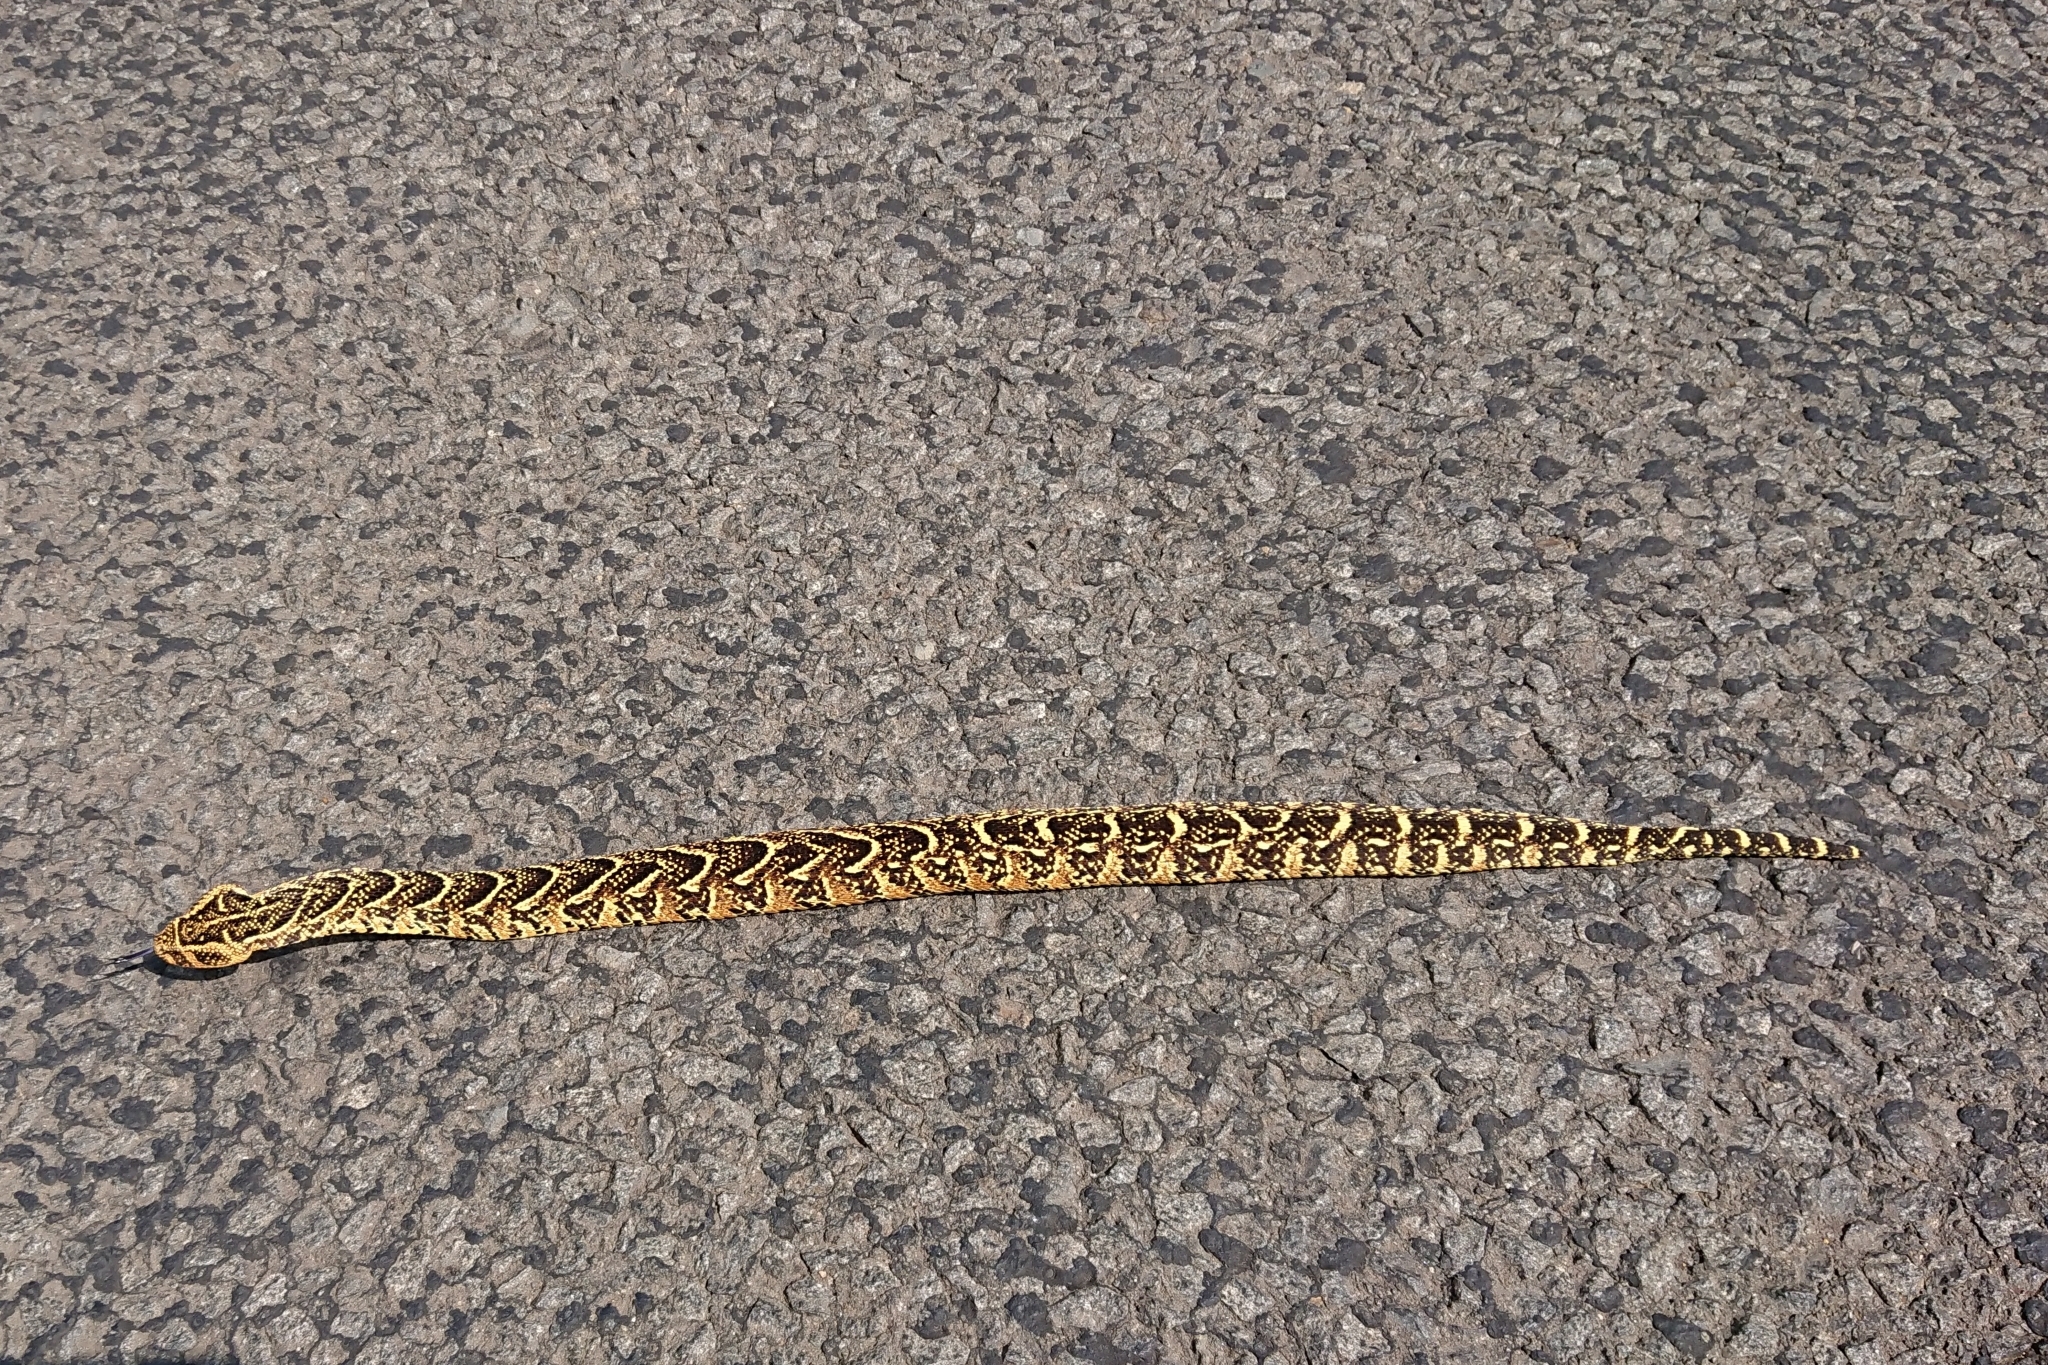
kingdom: Animalia
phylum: Chordata
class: Squamata
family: Viperidae
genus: Bitis
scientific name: Bitis arietans
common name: Puff adder
